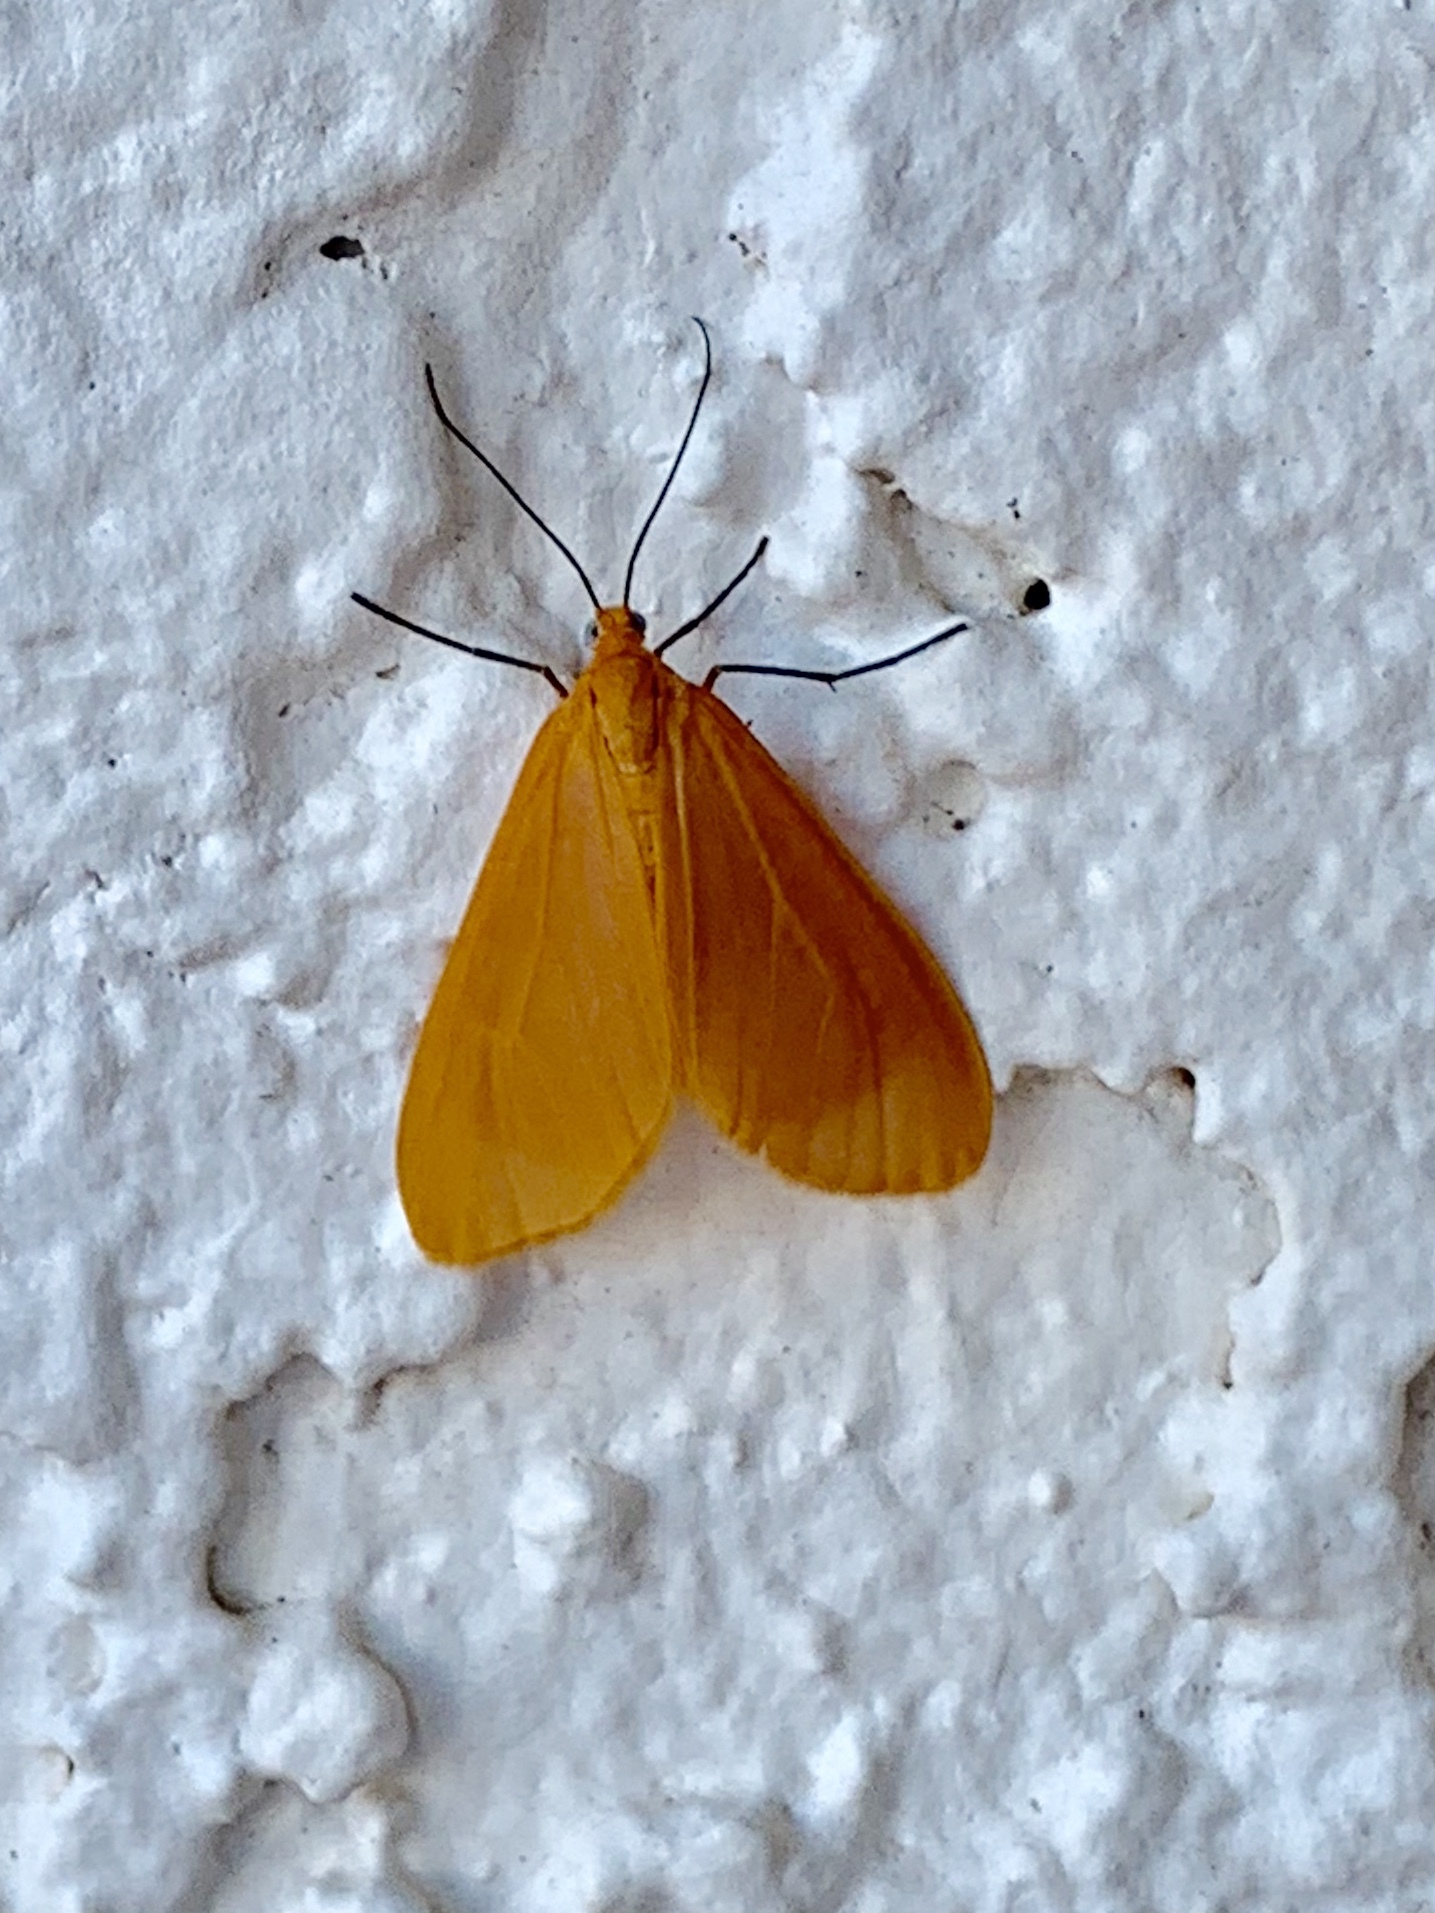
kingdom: Animalia
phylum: Arthropoda
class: Insecta
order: Lepidoptera
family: Geometridae
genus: Eubaphe
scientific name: Eubaphe unicolor
